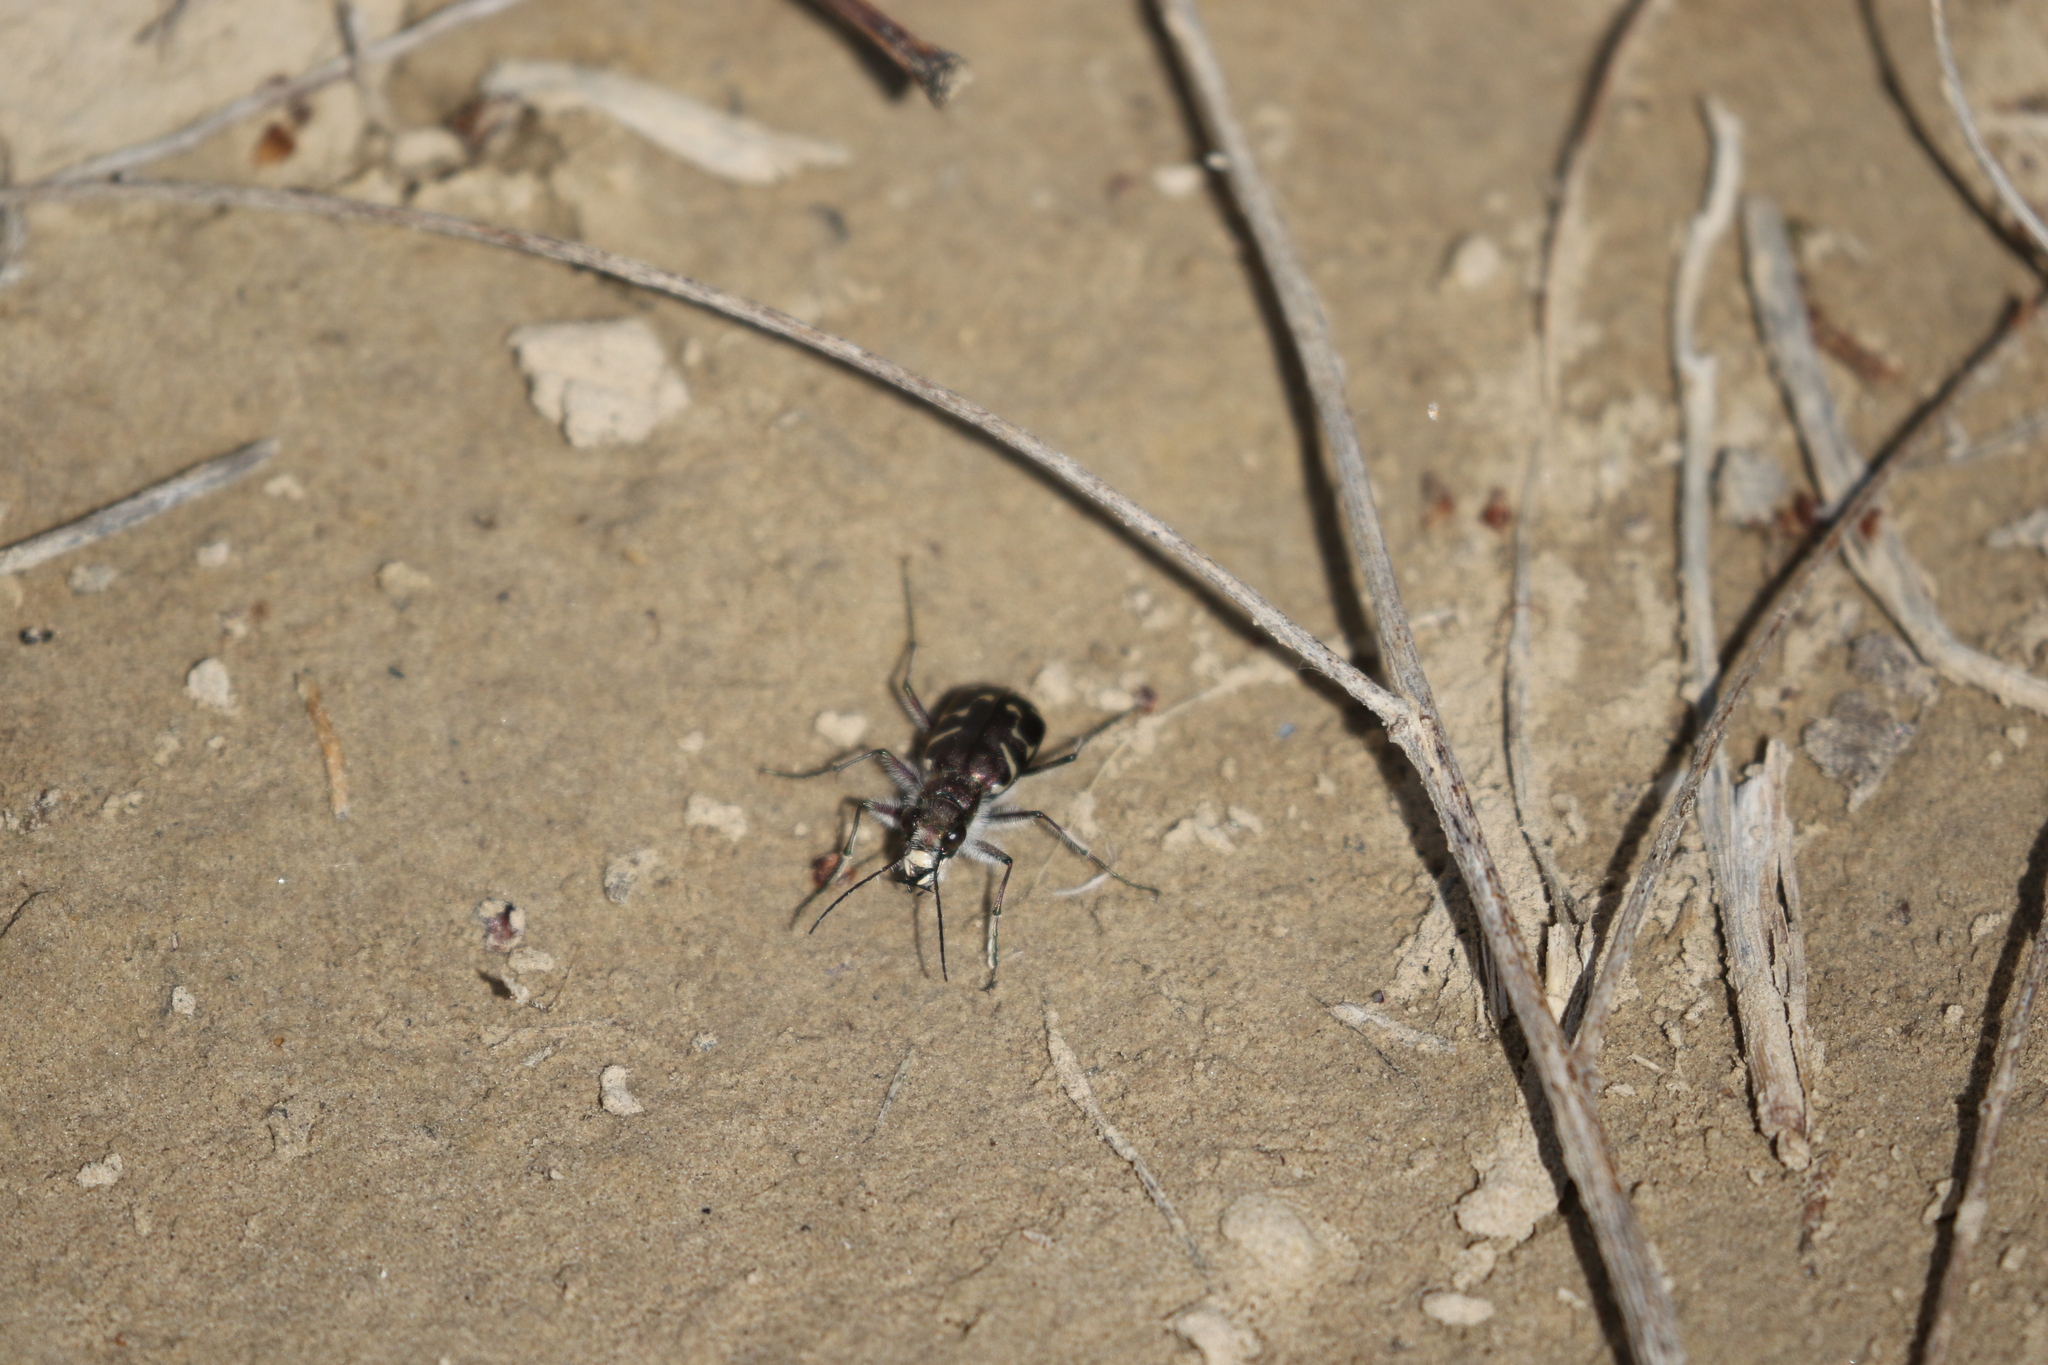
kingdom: Animalia
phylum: Arthropoda
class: Insecta
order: Coleoptera
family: Carabidae
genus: Cicindela
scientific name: Cicindela tranquebarica
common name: Oblique-lined tiger beetle
